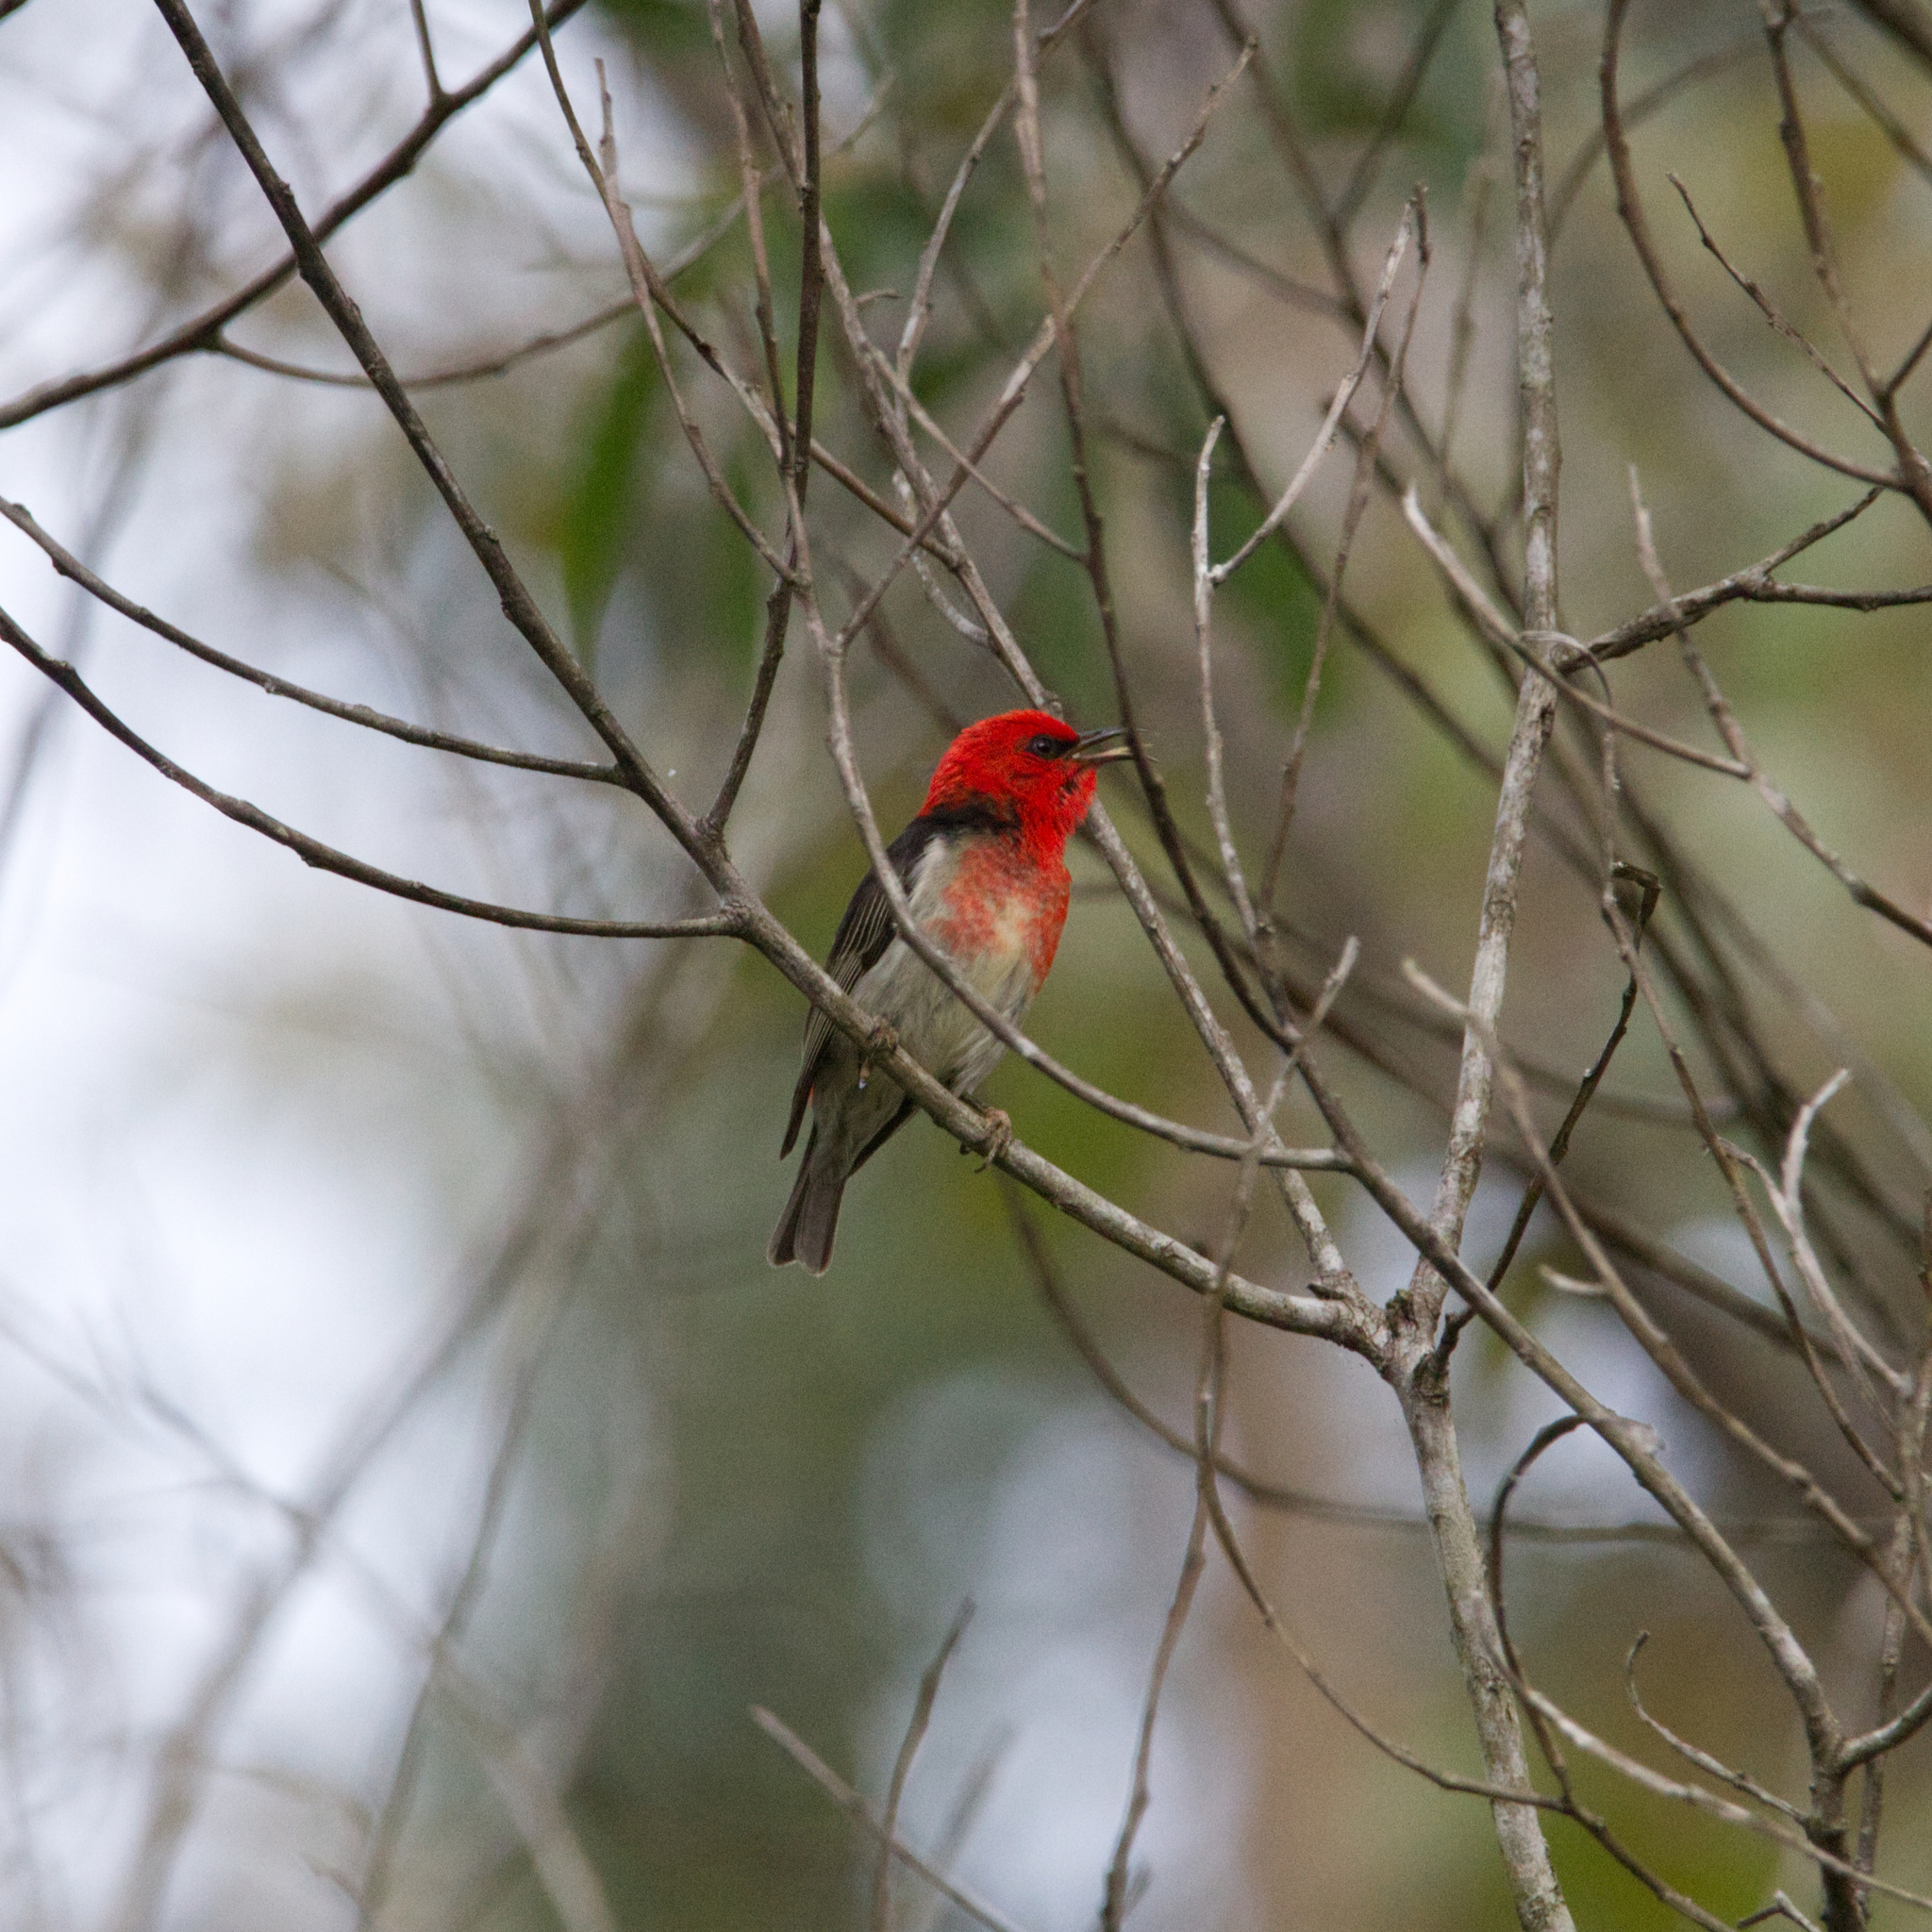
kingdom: Animalia
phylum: Chordata
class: Aves
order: Passeriformes
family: Meliphagidae
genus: Myzomela
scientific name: Myzomela sanguinolenta
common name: Scarlet myzomela
